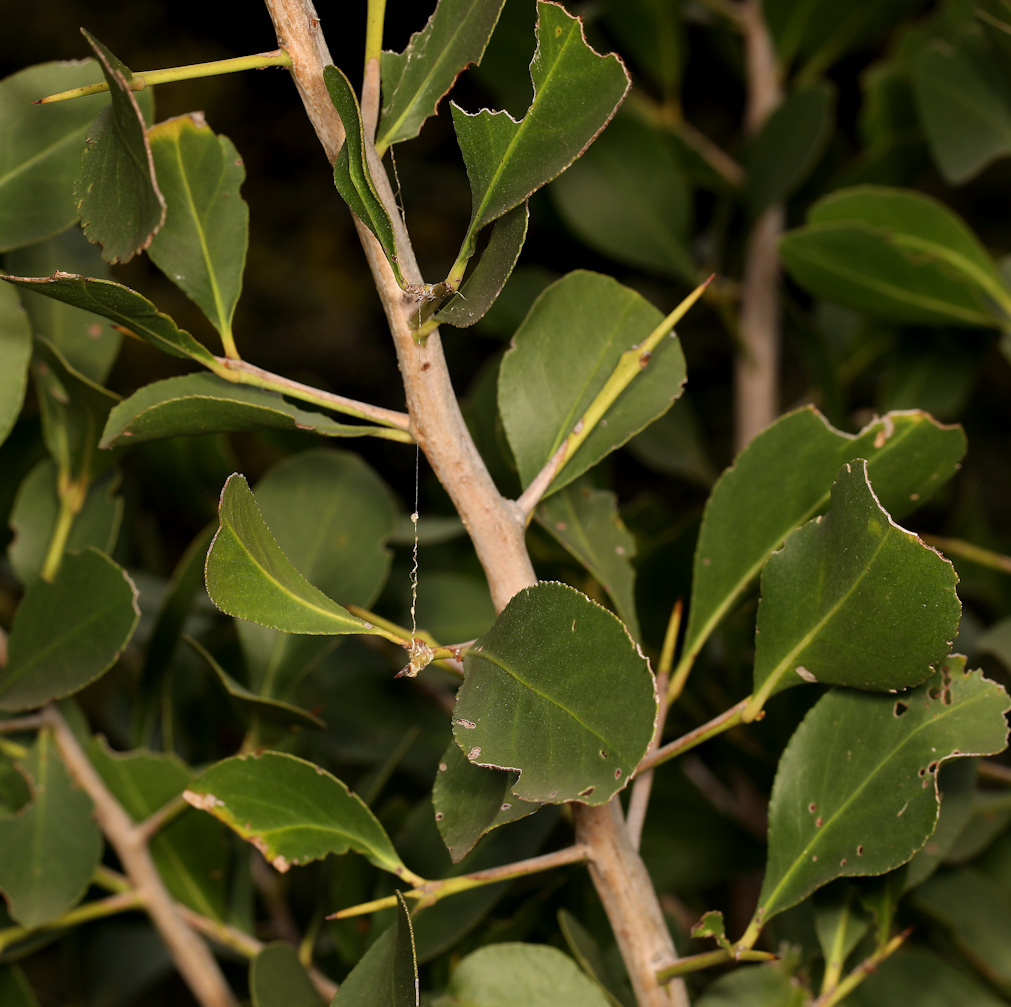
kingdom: Plantae
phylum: Tracheophyta
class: Magnoliopsida
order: Celastrales
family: Celastraceae
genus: Gymnosporia
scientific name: Gymnosporia senegalensis
